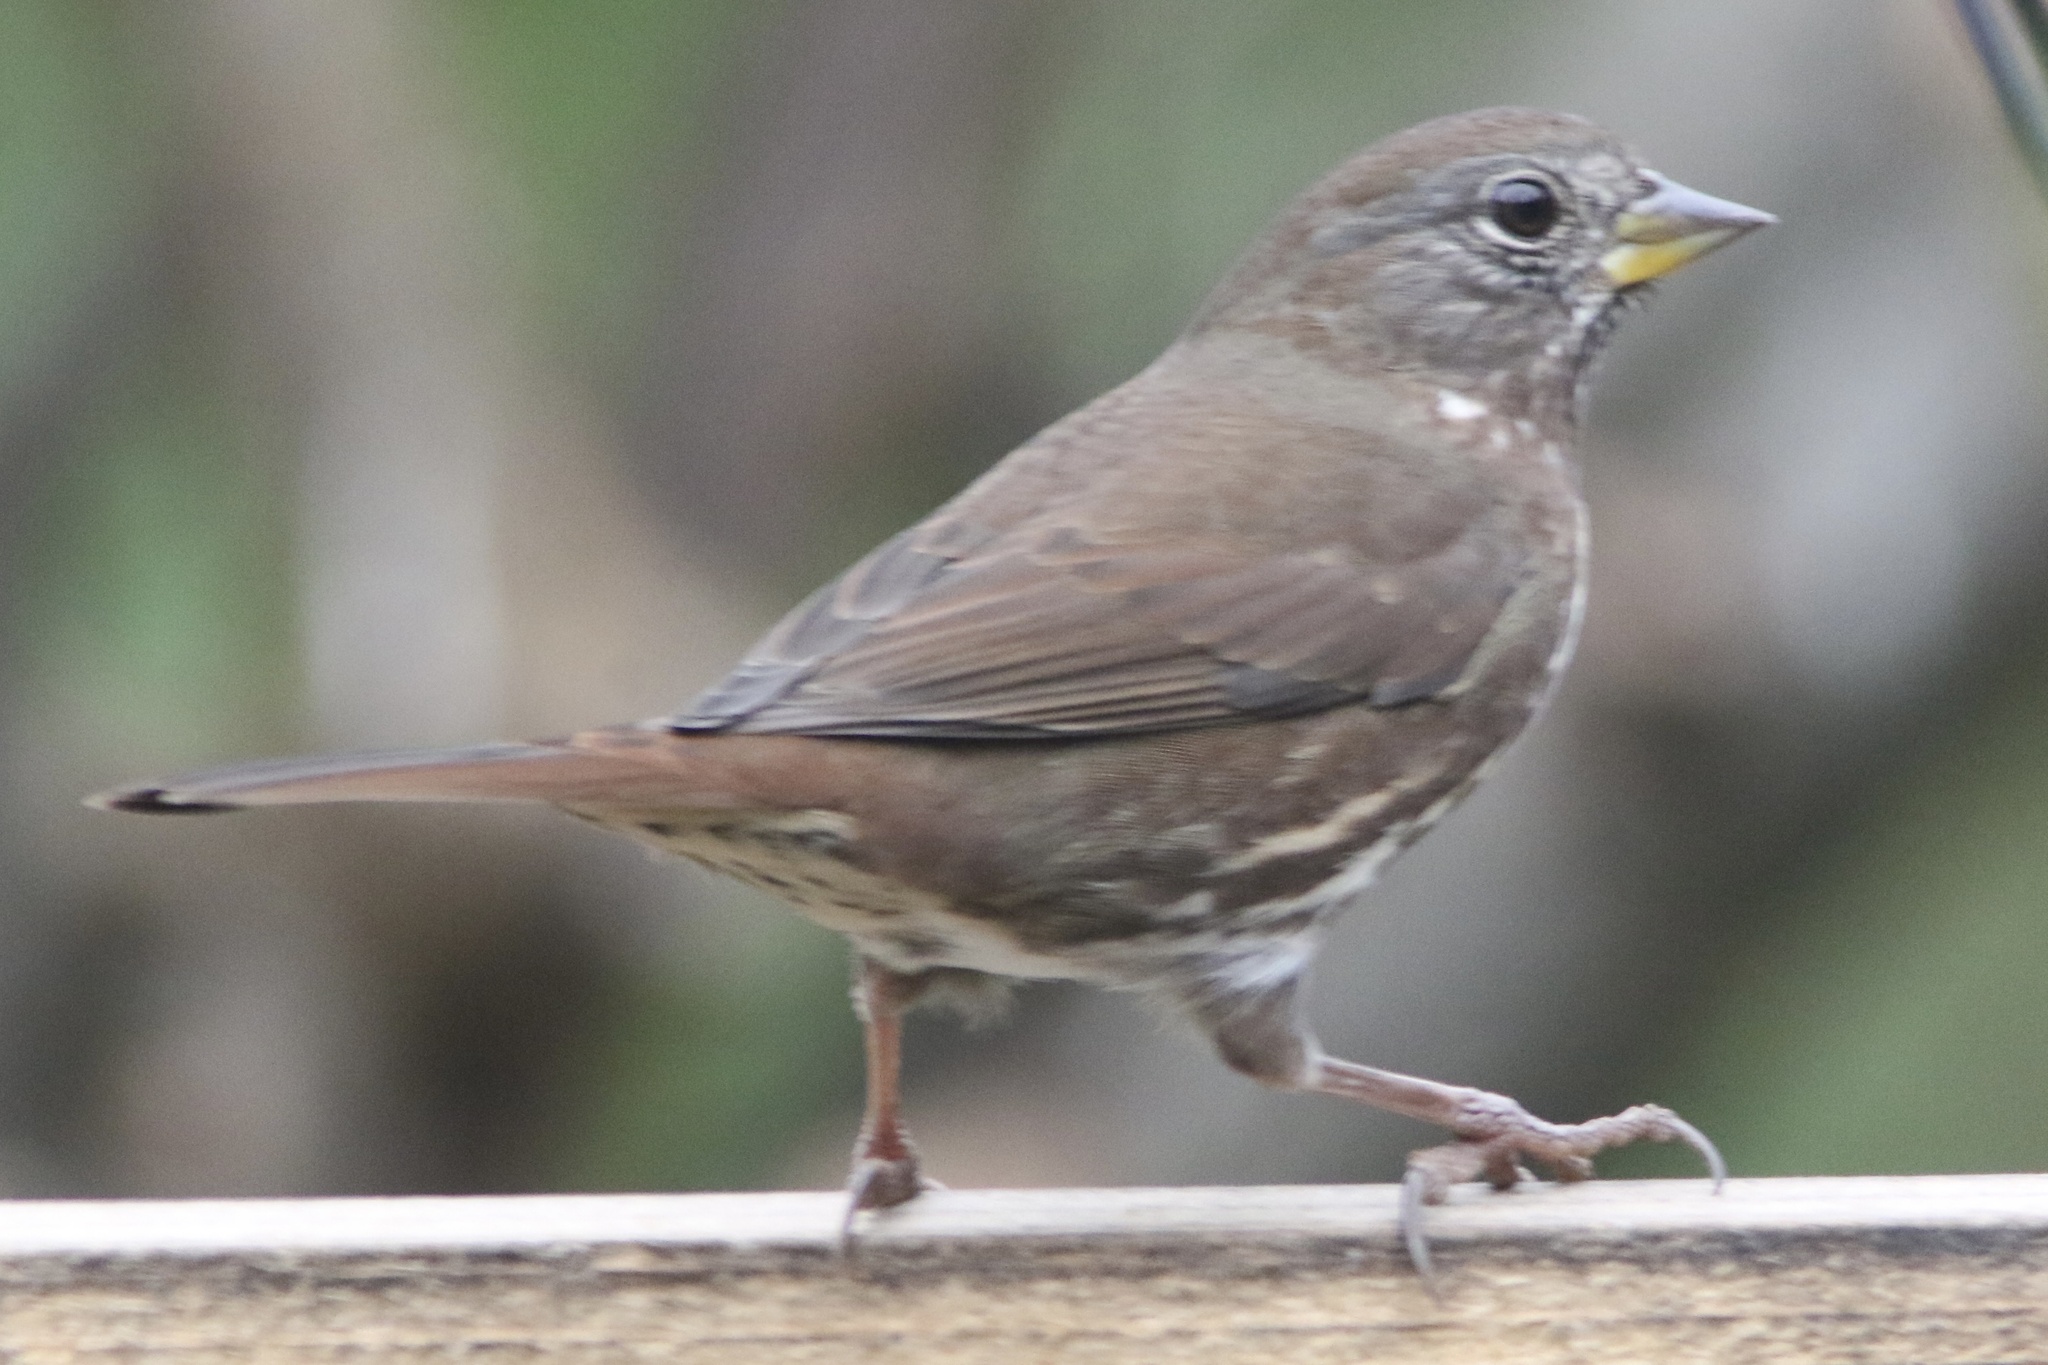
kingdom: Animalia
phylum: Chordata
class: Aves
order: Passeriformes
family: Passerellidae
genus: Passerella
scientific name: Passerella iliaca
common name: Fox sparrow
